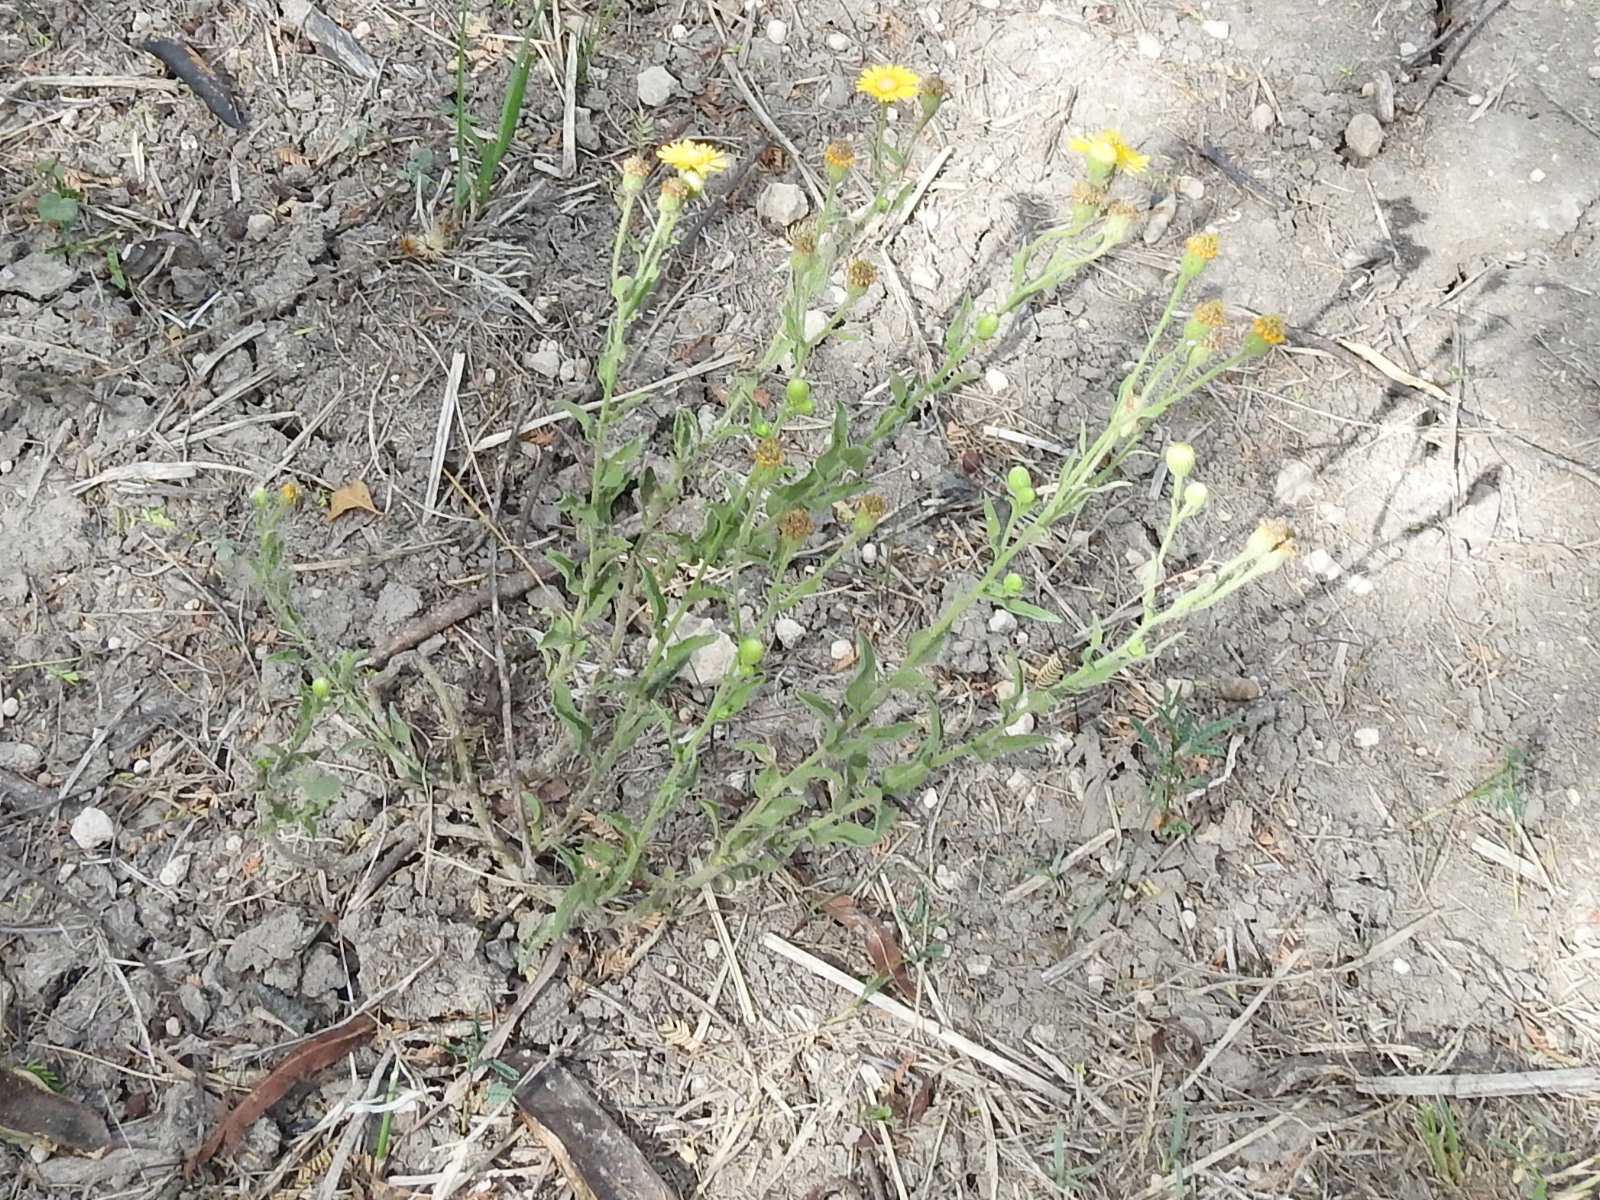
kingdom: Plantae
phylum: Tracheophyta
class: Magnoliopsida
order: Asterales
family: Asteraceae
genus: Heterotheca
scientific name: Heterotheca subaxillaris
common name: Camphorweed
